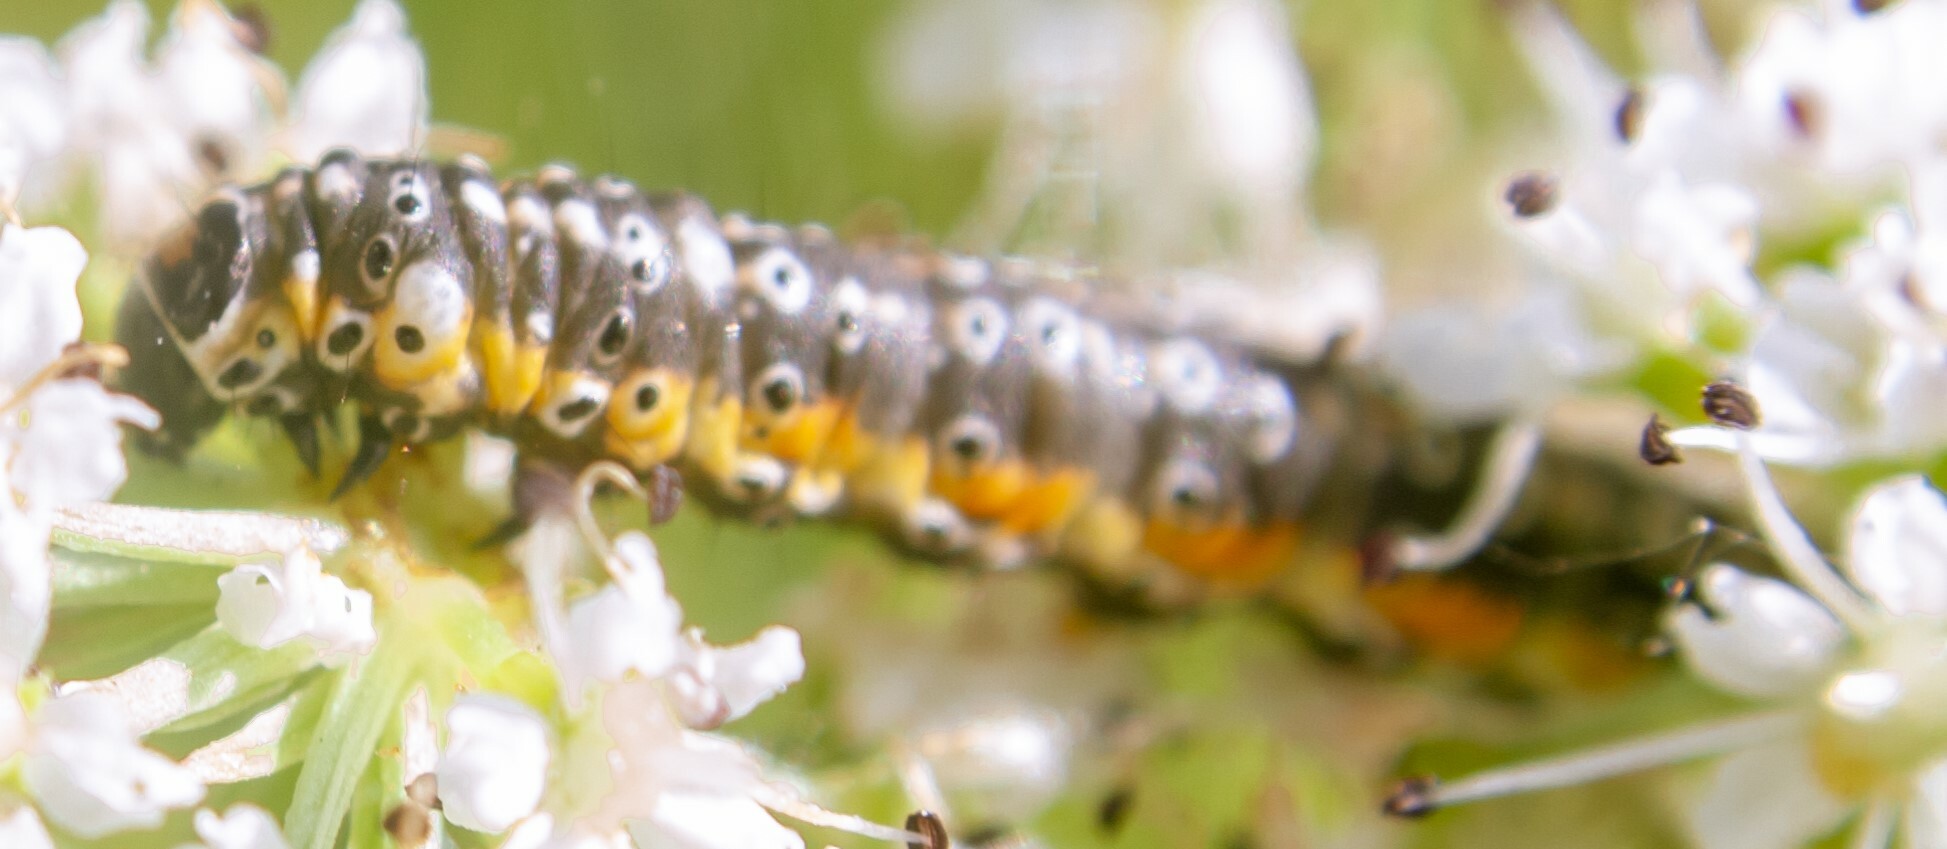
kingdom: Animalia
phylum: Arthropoda
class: Insecta
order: Lepidoptera
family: Depressariidae
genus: Depressaria
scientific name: Depressaria radiella
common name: Parsnip moth
